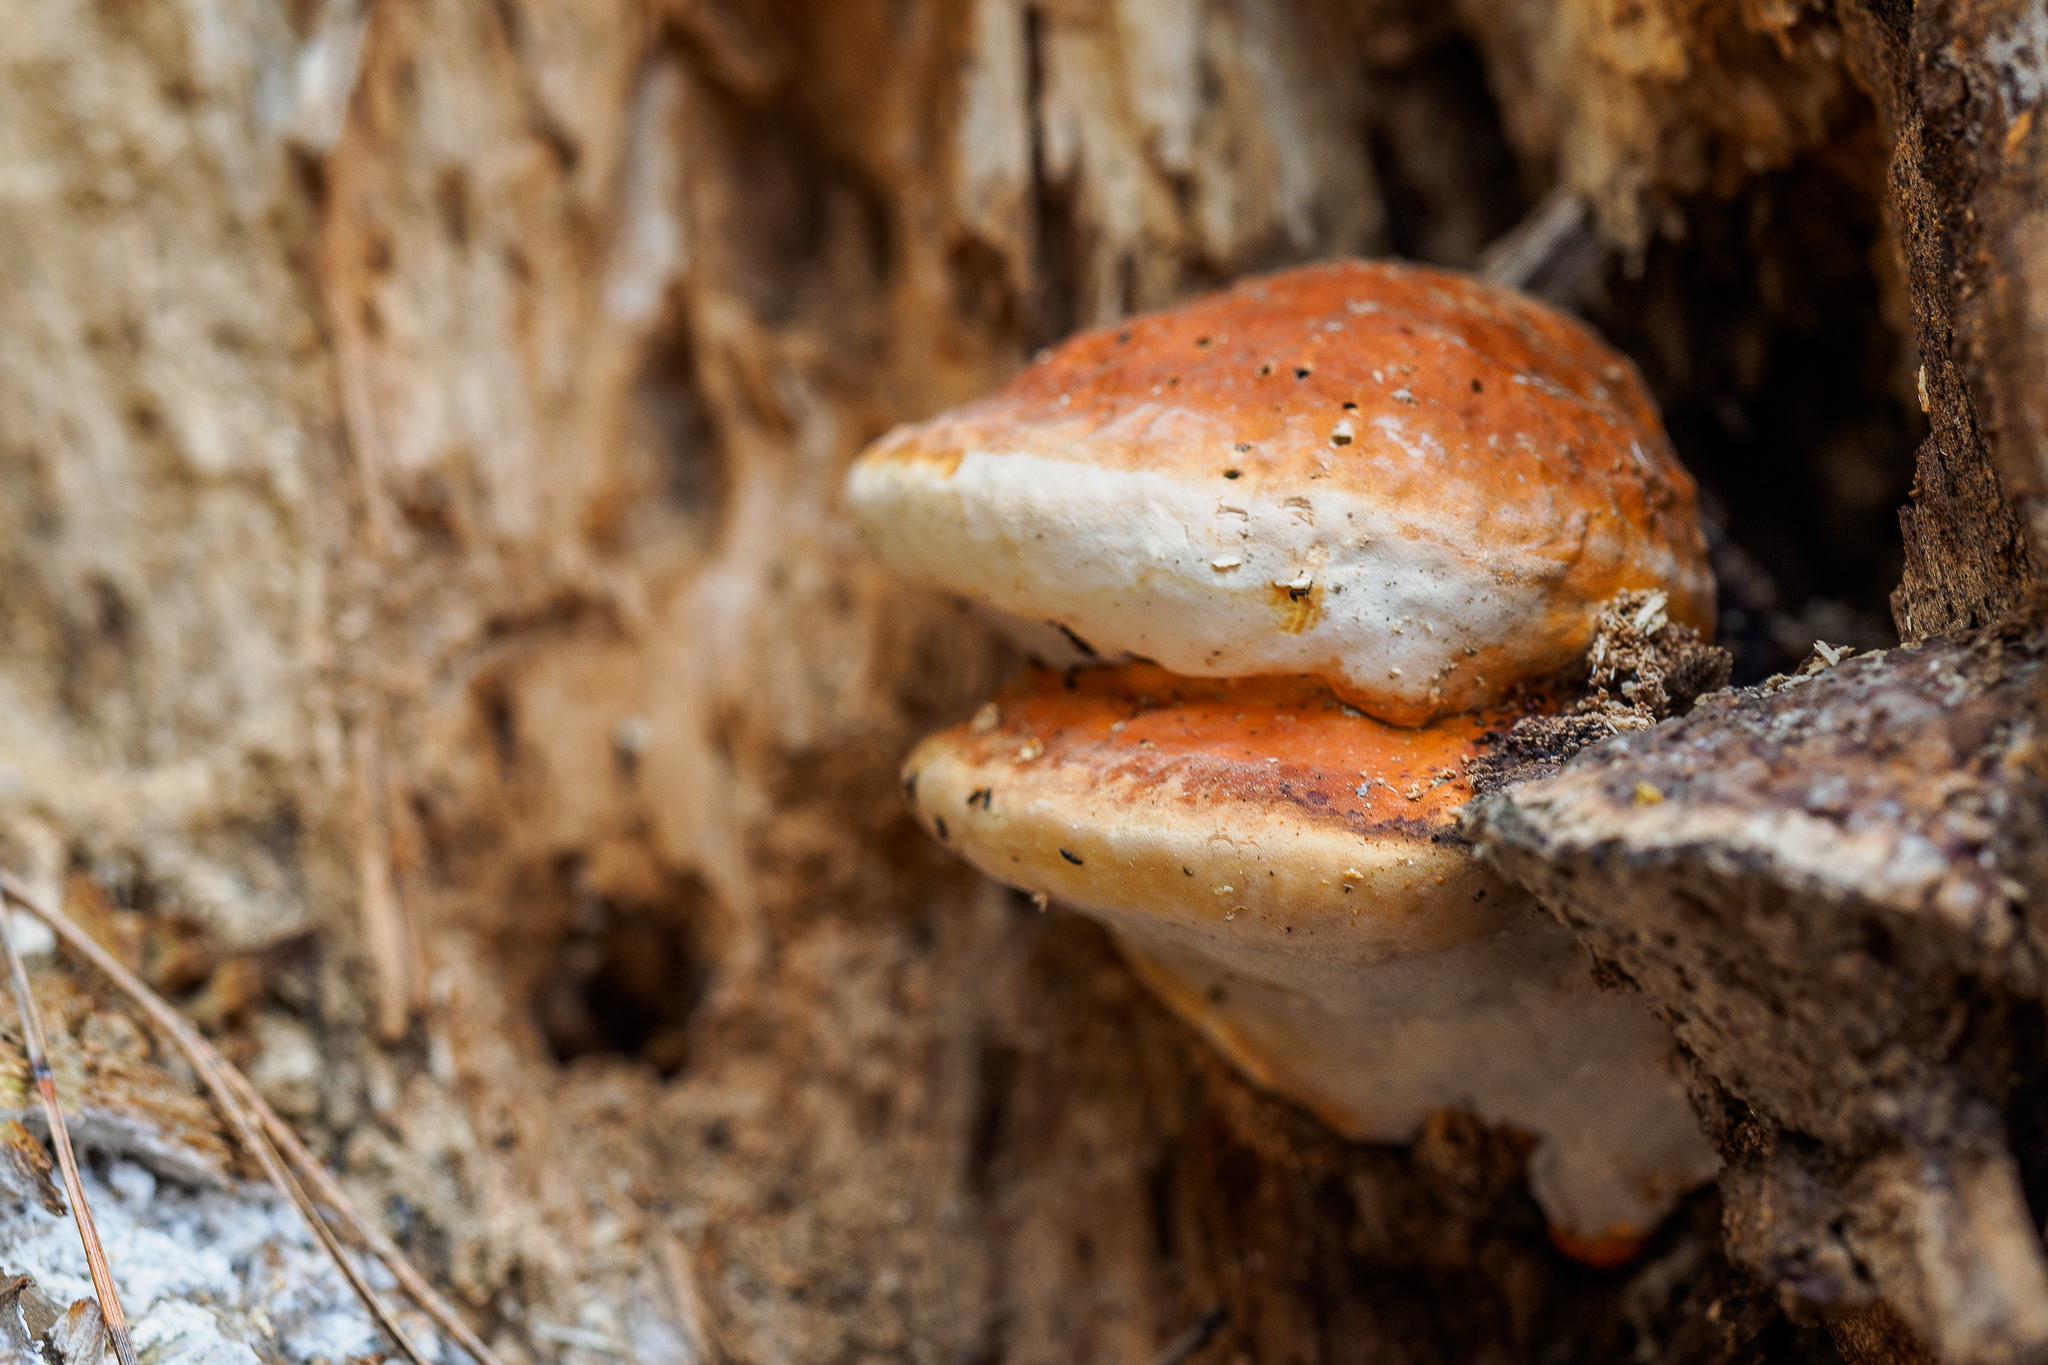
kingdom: Fungi
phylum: Basidiomycota
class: Agaricomycetes
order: Polyporales
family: Fomitopsidaceae
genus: Fomitopsis
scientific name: Fomitopsis pinicola
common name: Red-belted bracket
